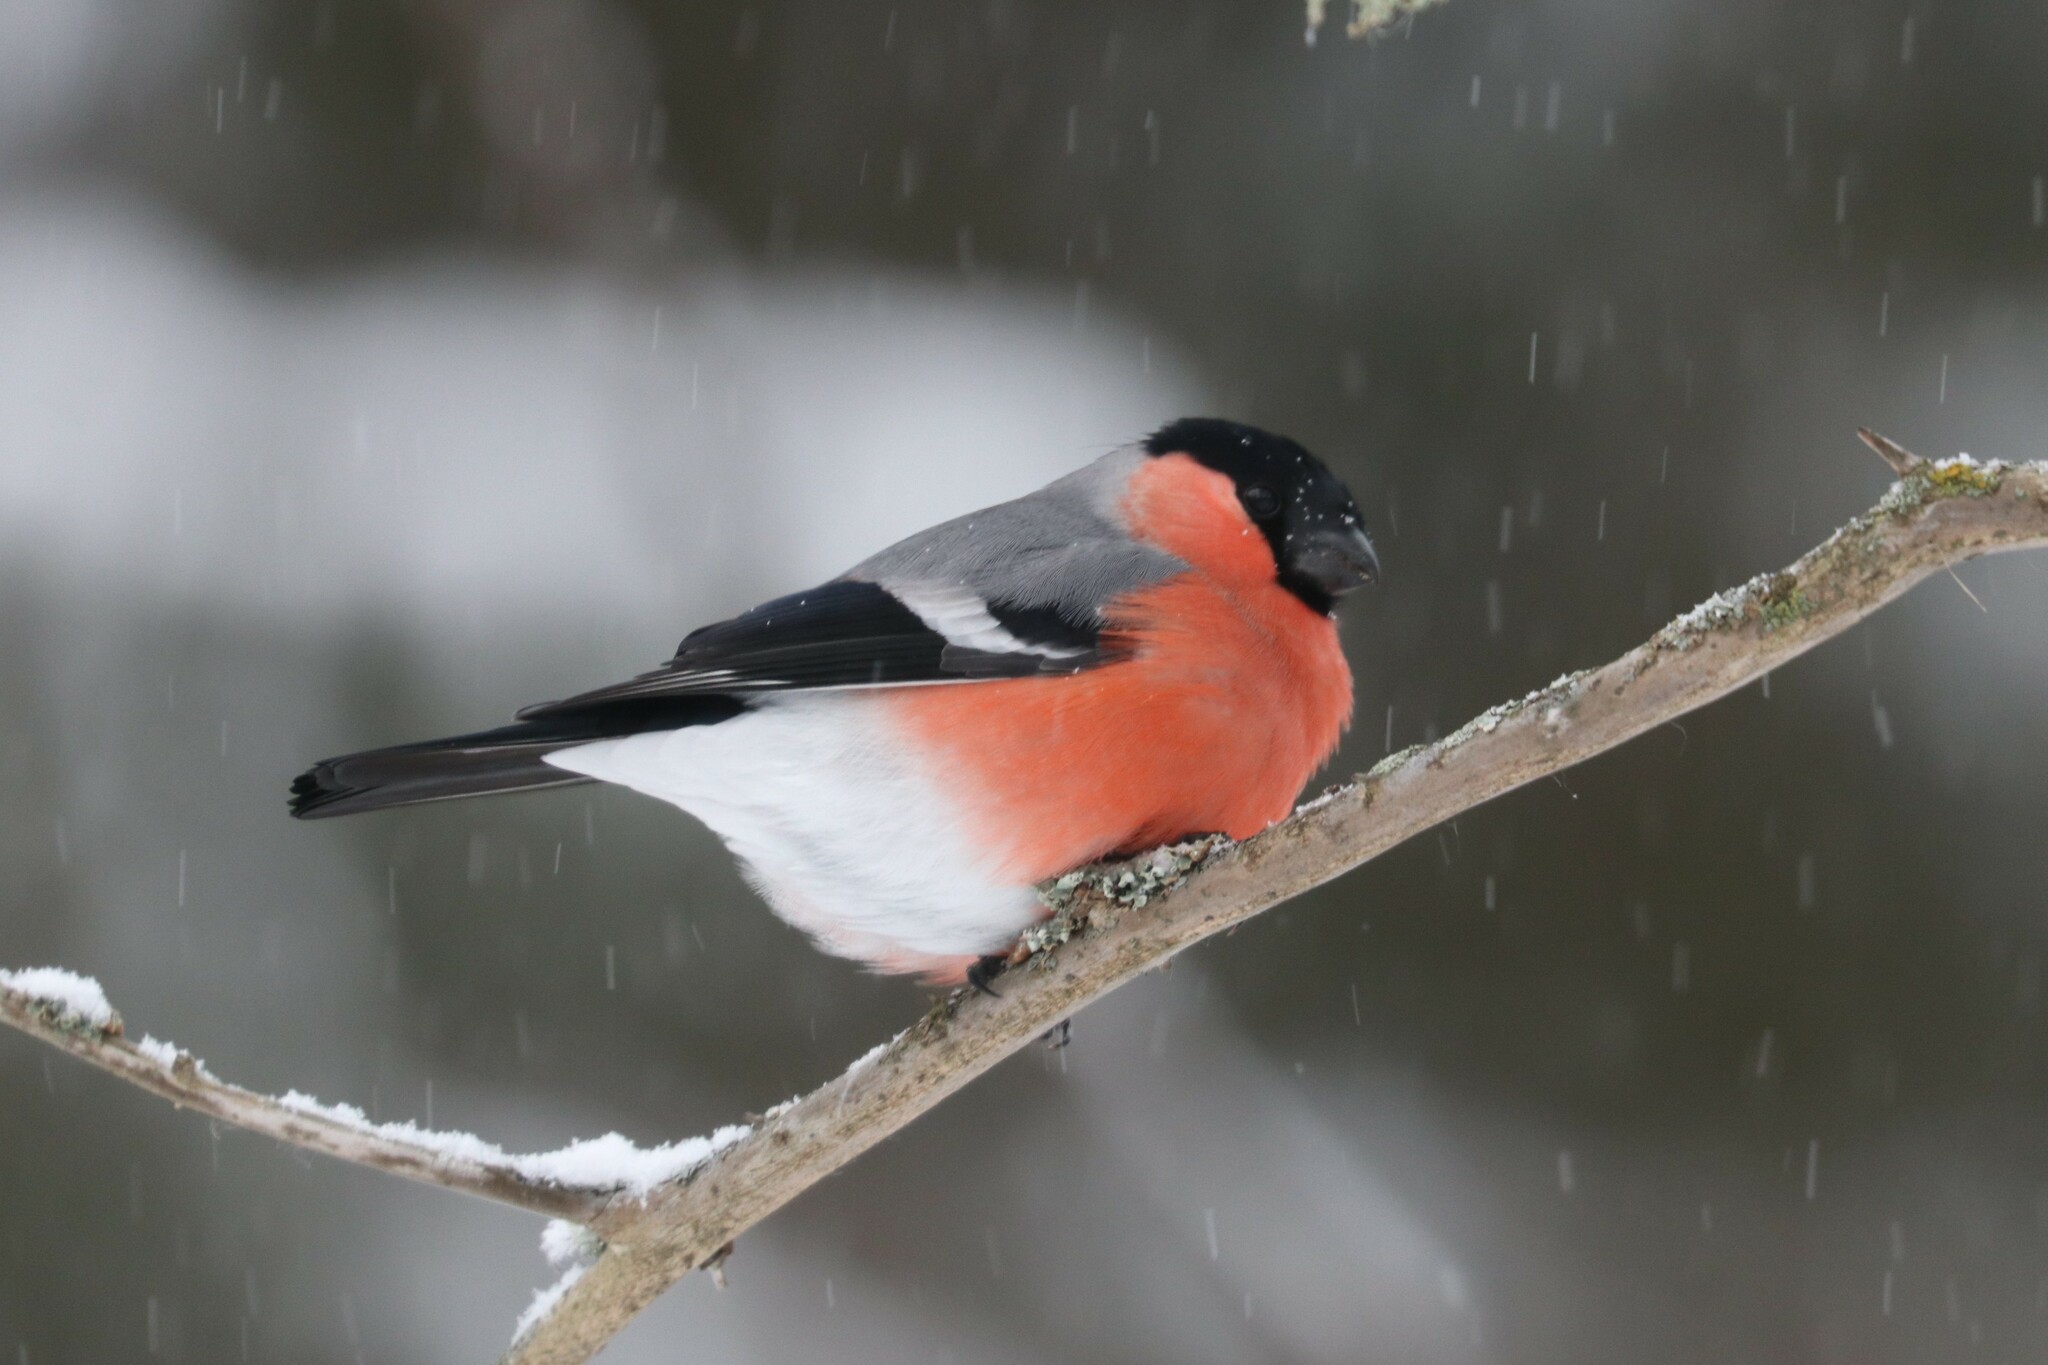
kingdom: Animalia
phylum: Chordata
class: Aves
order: Passeriformes
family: Fringillidae
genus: Pyrrhula
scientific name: Pyrrhula pyrrhula
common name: Eurasian bullfinch
